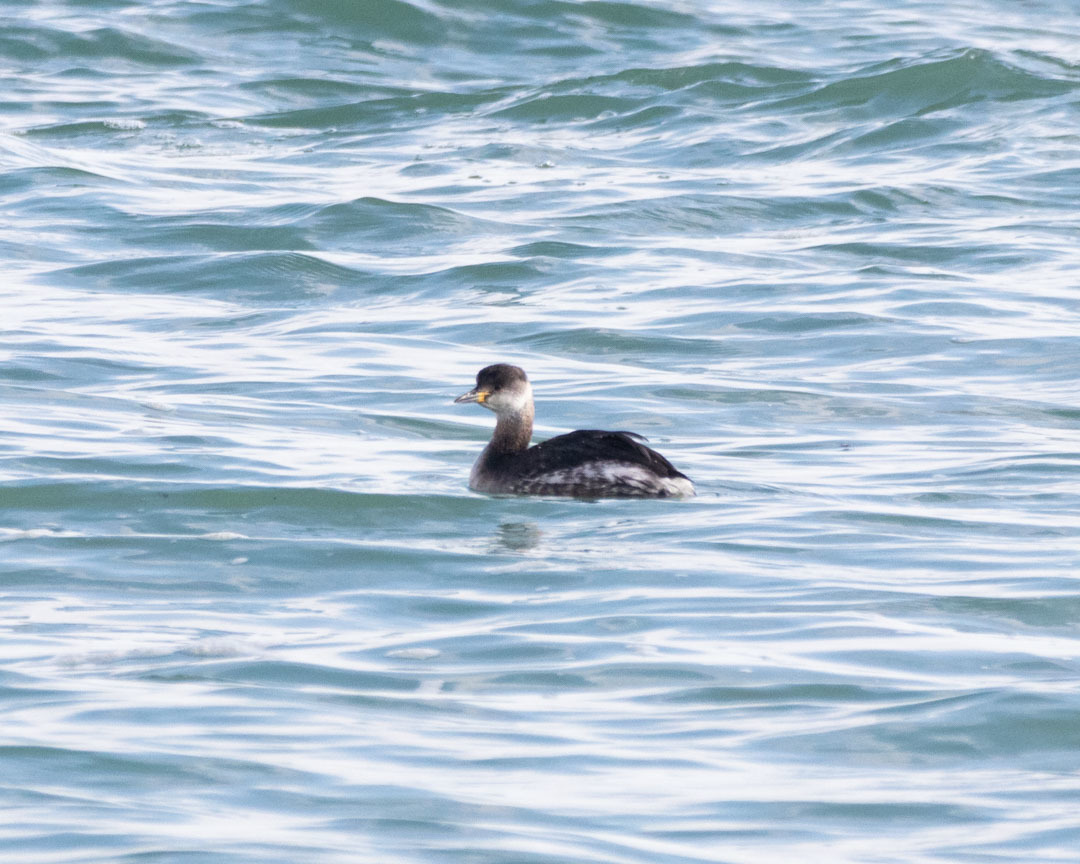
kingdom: Animalia
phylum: Chordata
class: Aves
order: Podicipediformes
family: Podicipedidae
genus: Podiceps
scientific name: Podiceps grisegena
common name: Red-necked grebe
